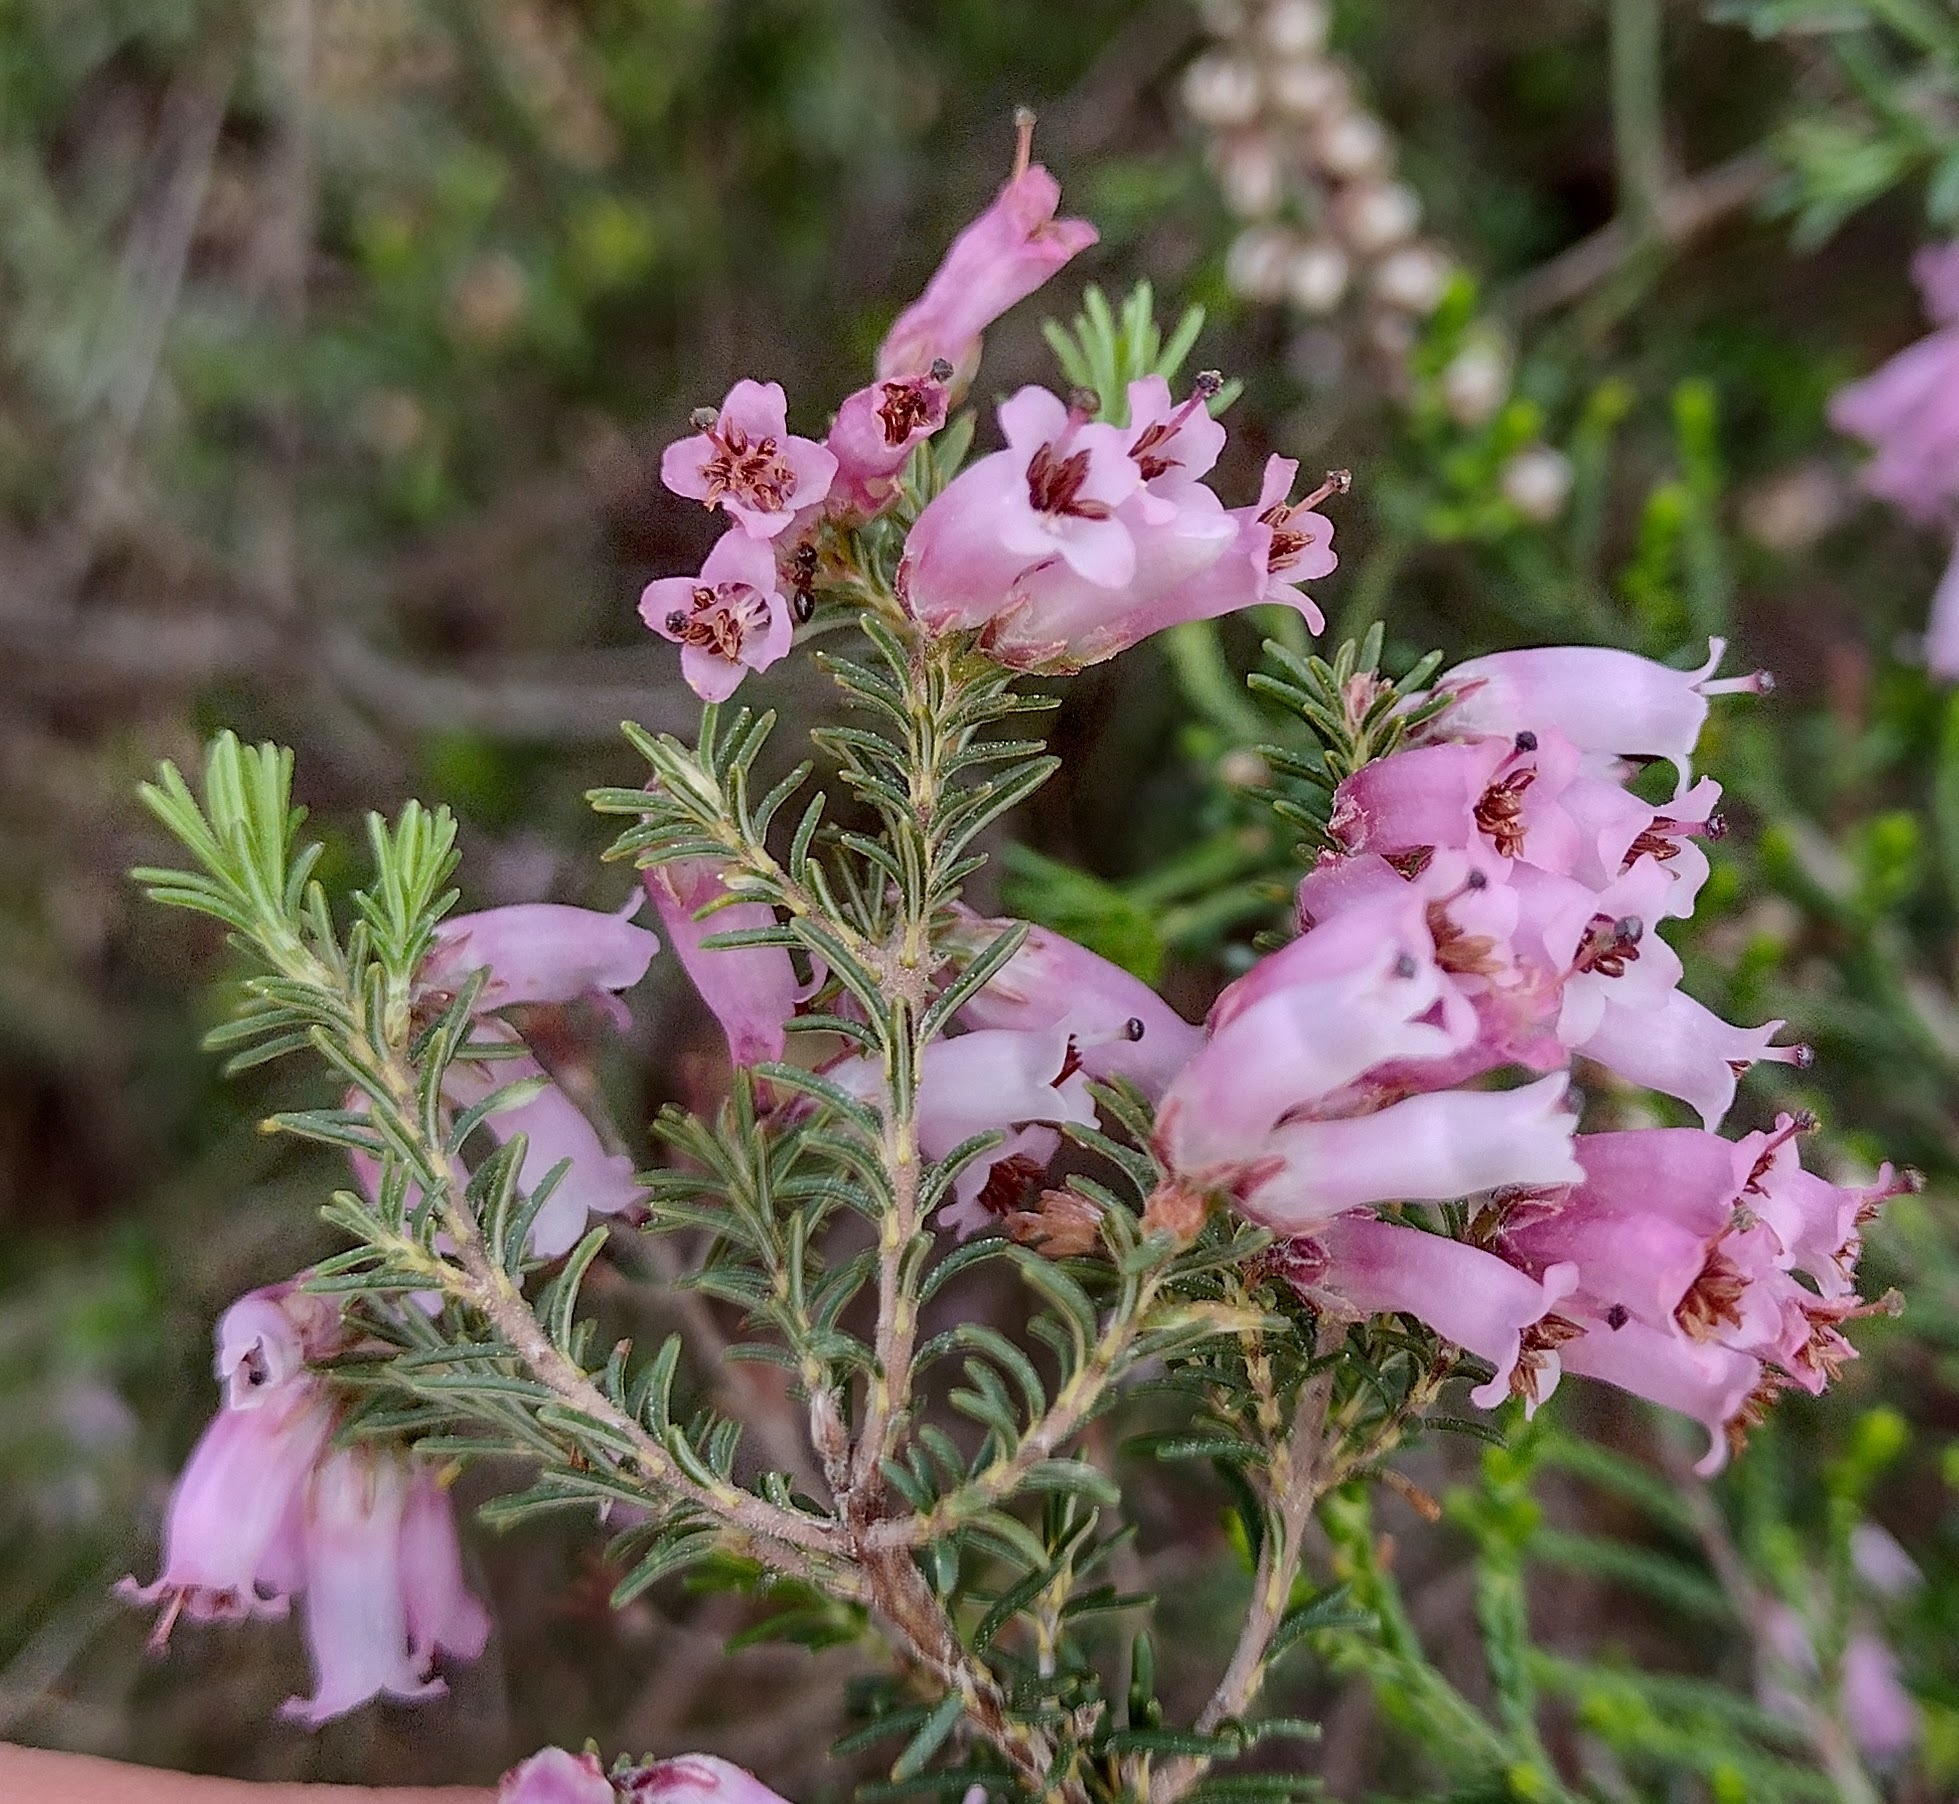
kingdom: Plantae
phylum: Tracheophyta
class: Magnoliopsida
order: Ericales
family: Ericaceae
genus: Erica
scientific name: Erica australis
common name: Spanish heath
